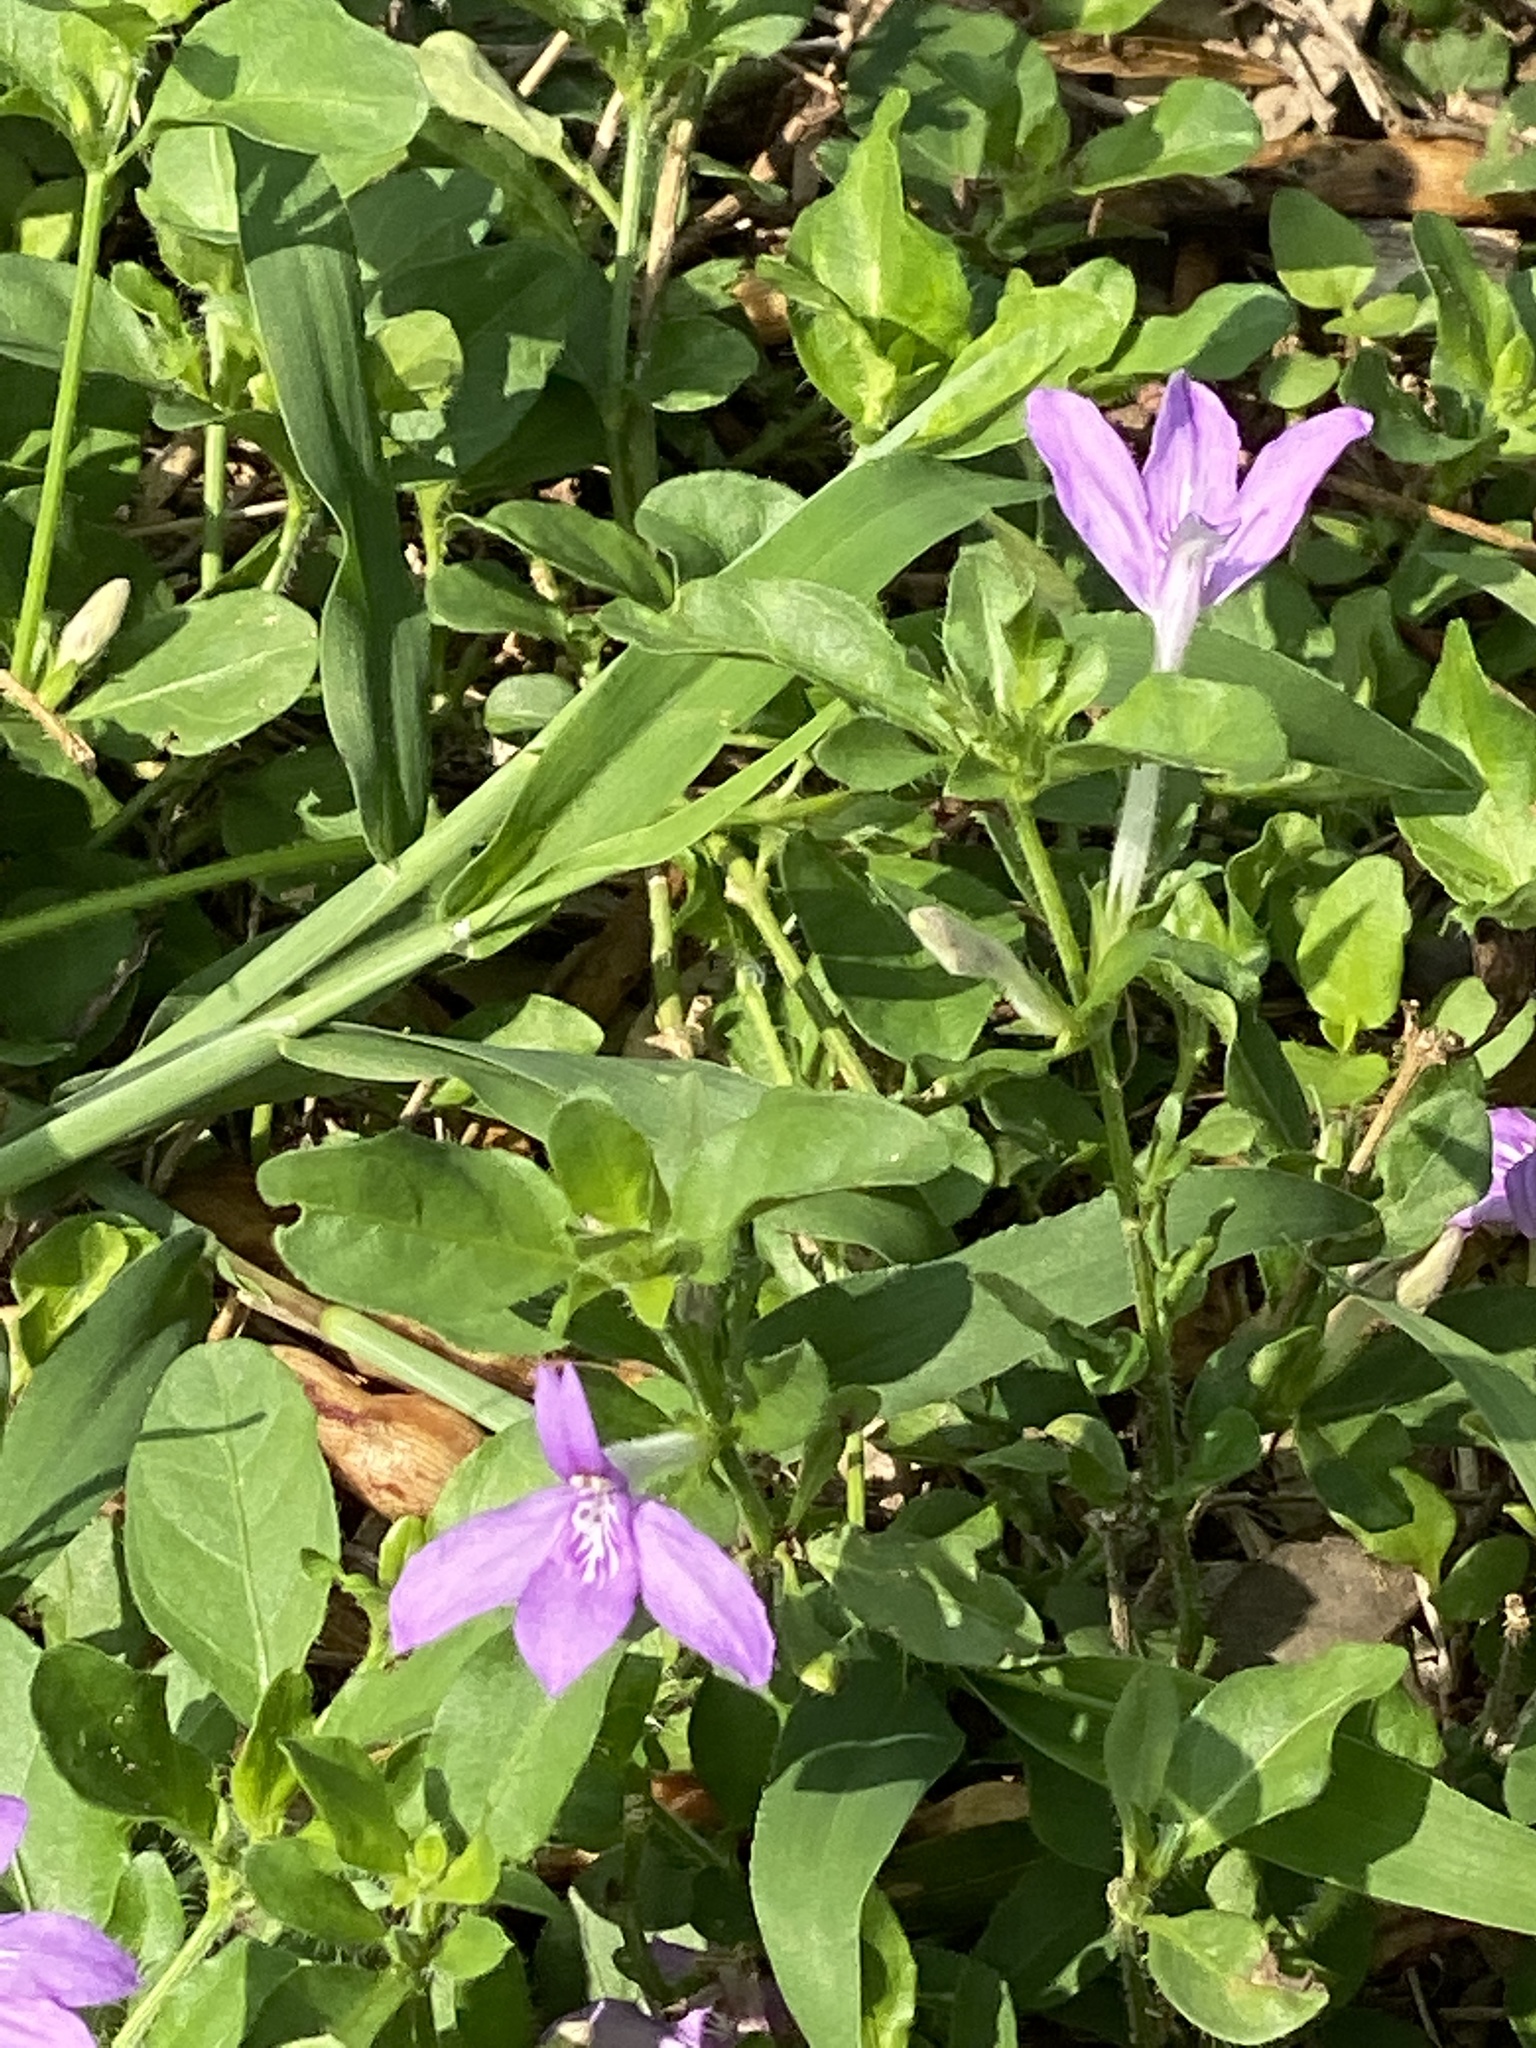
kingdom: Plantae
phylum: Tracheophyta
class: Magnoliopsida
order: Lamiales
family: Acanthaceae
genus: Justicia
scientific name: Justicia pilosella
